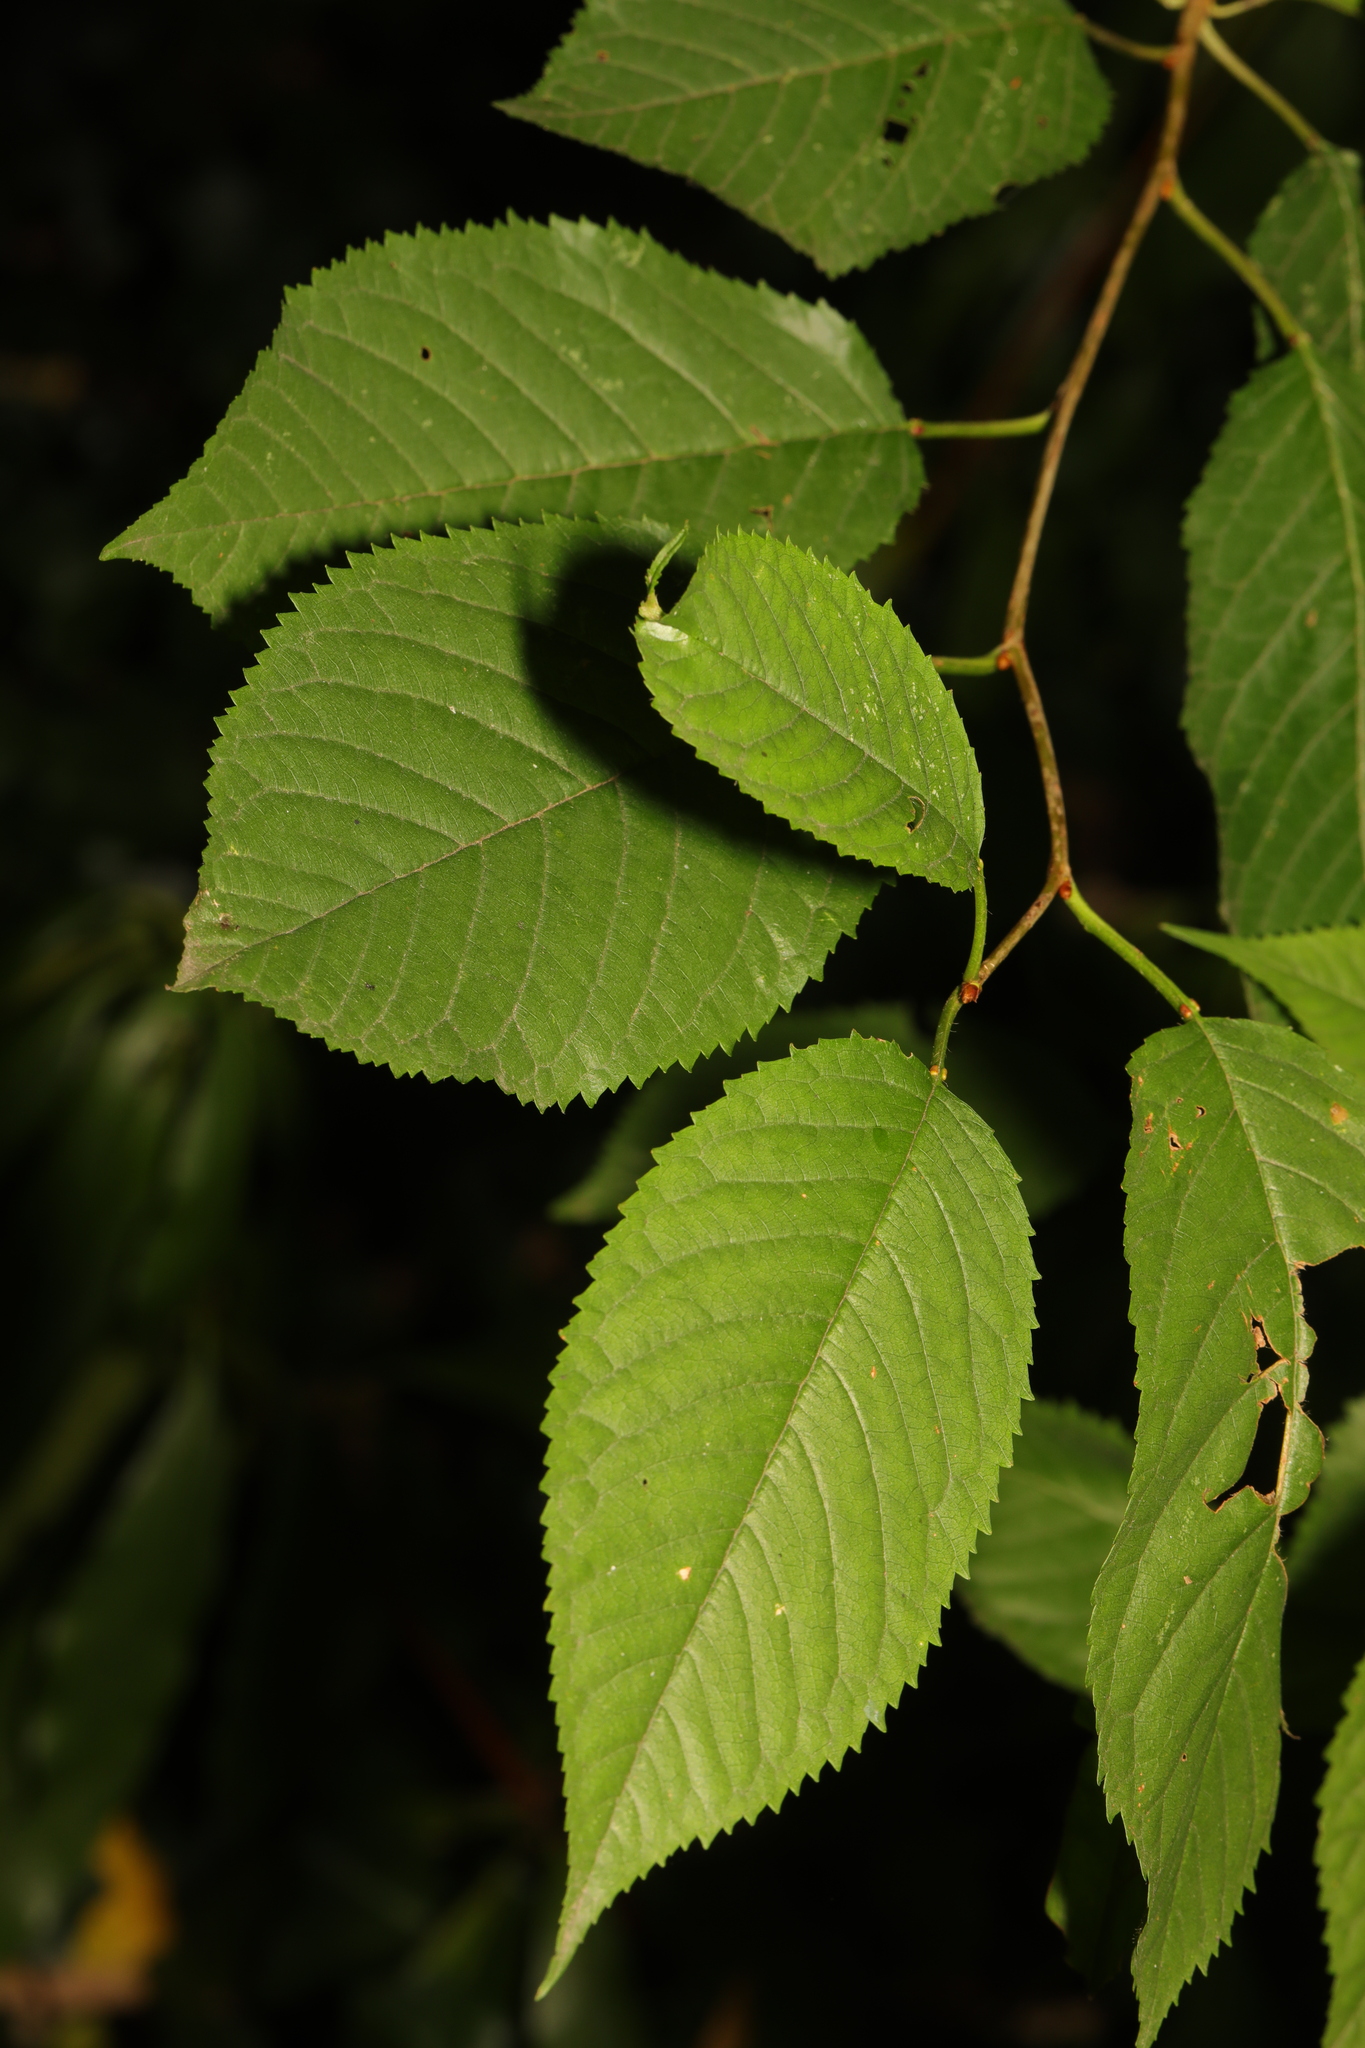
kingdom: Plantae
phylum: Tracheophyta
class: Magnoliopsida
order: Rosales
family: Rosaceae
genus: Prunus
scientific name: Prunus avium
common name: Sweet cherry
